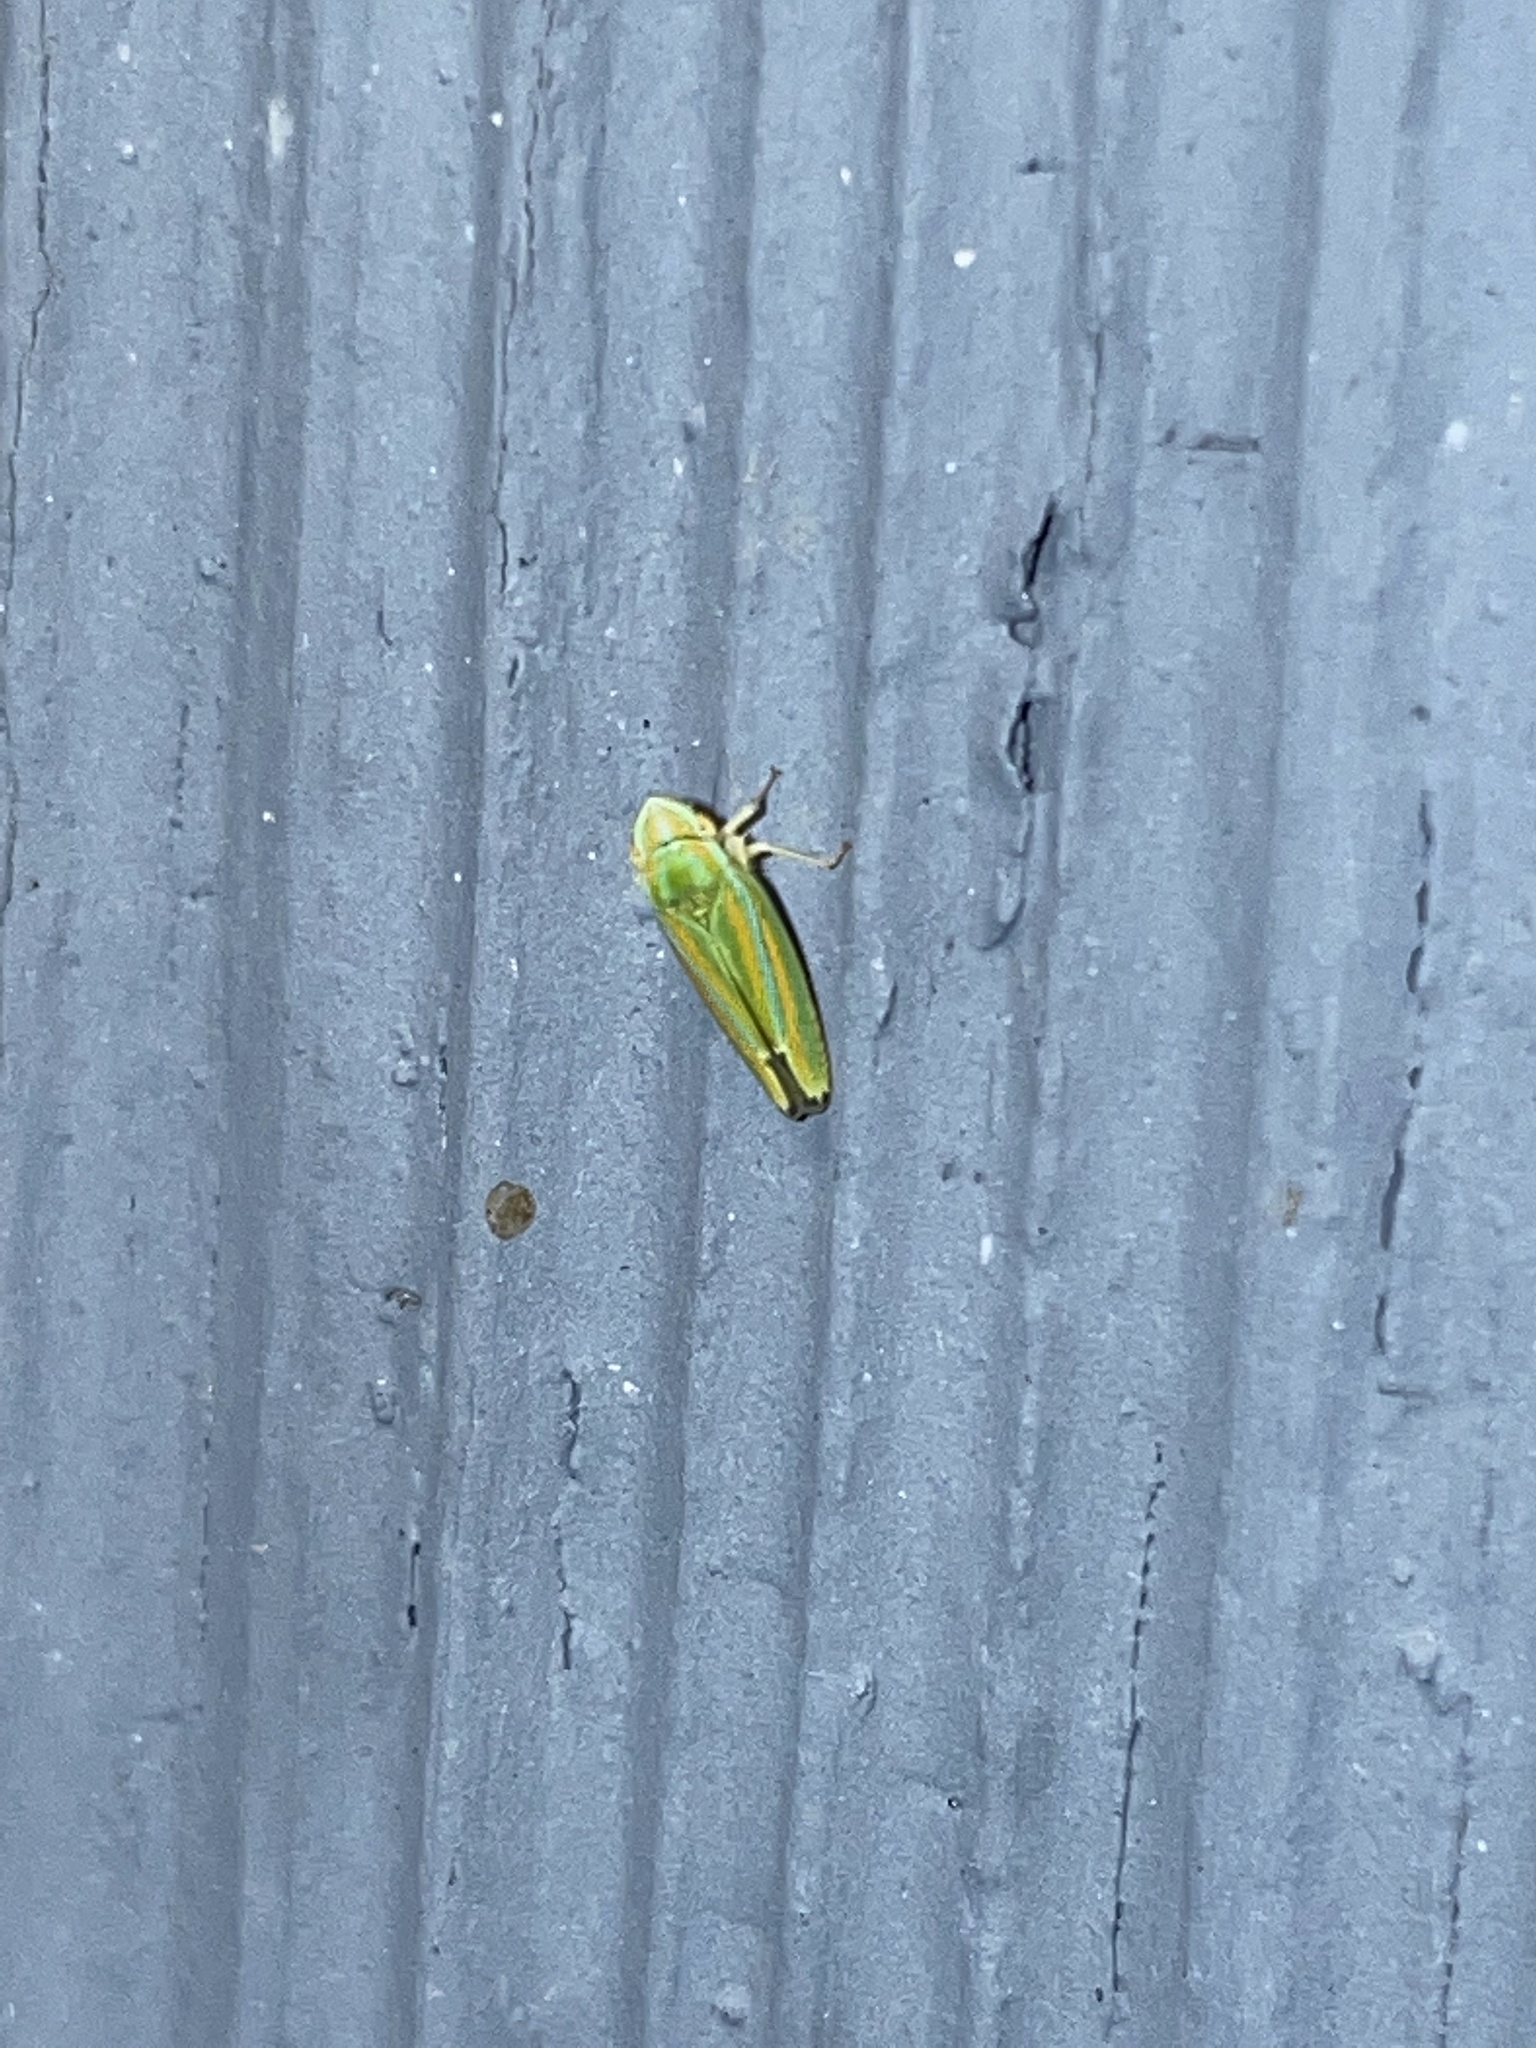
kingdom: Animalia
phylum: Arthropoda
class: Insecta
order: Hemiptera
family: Cicadellidae
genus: Graphocephala
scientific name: Graphocephala versuta
